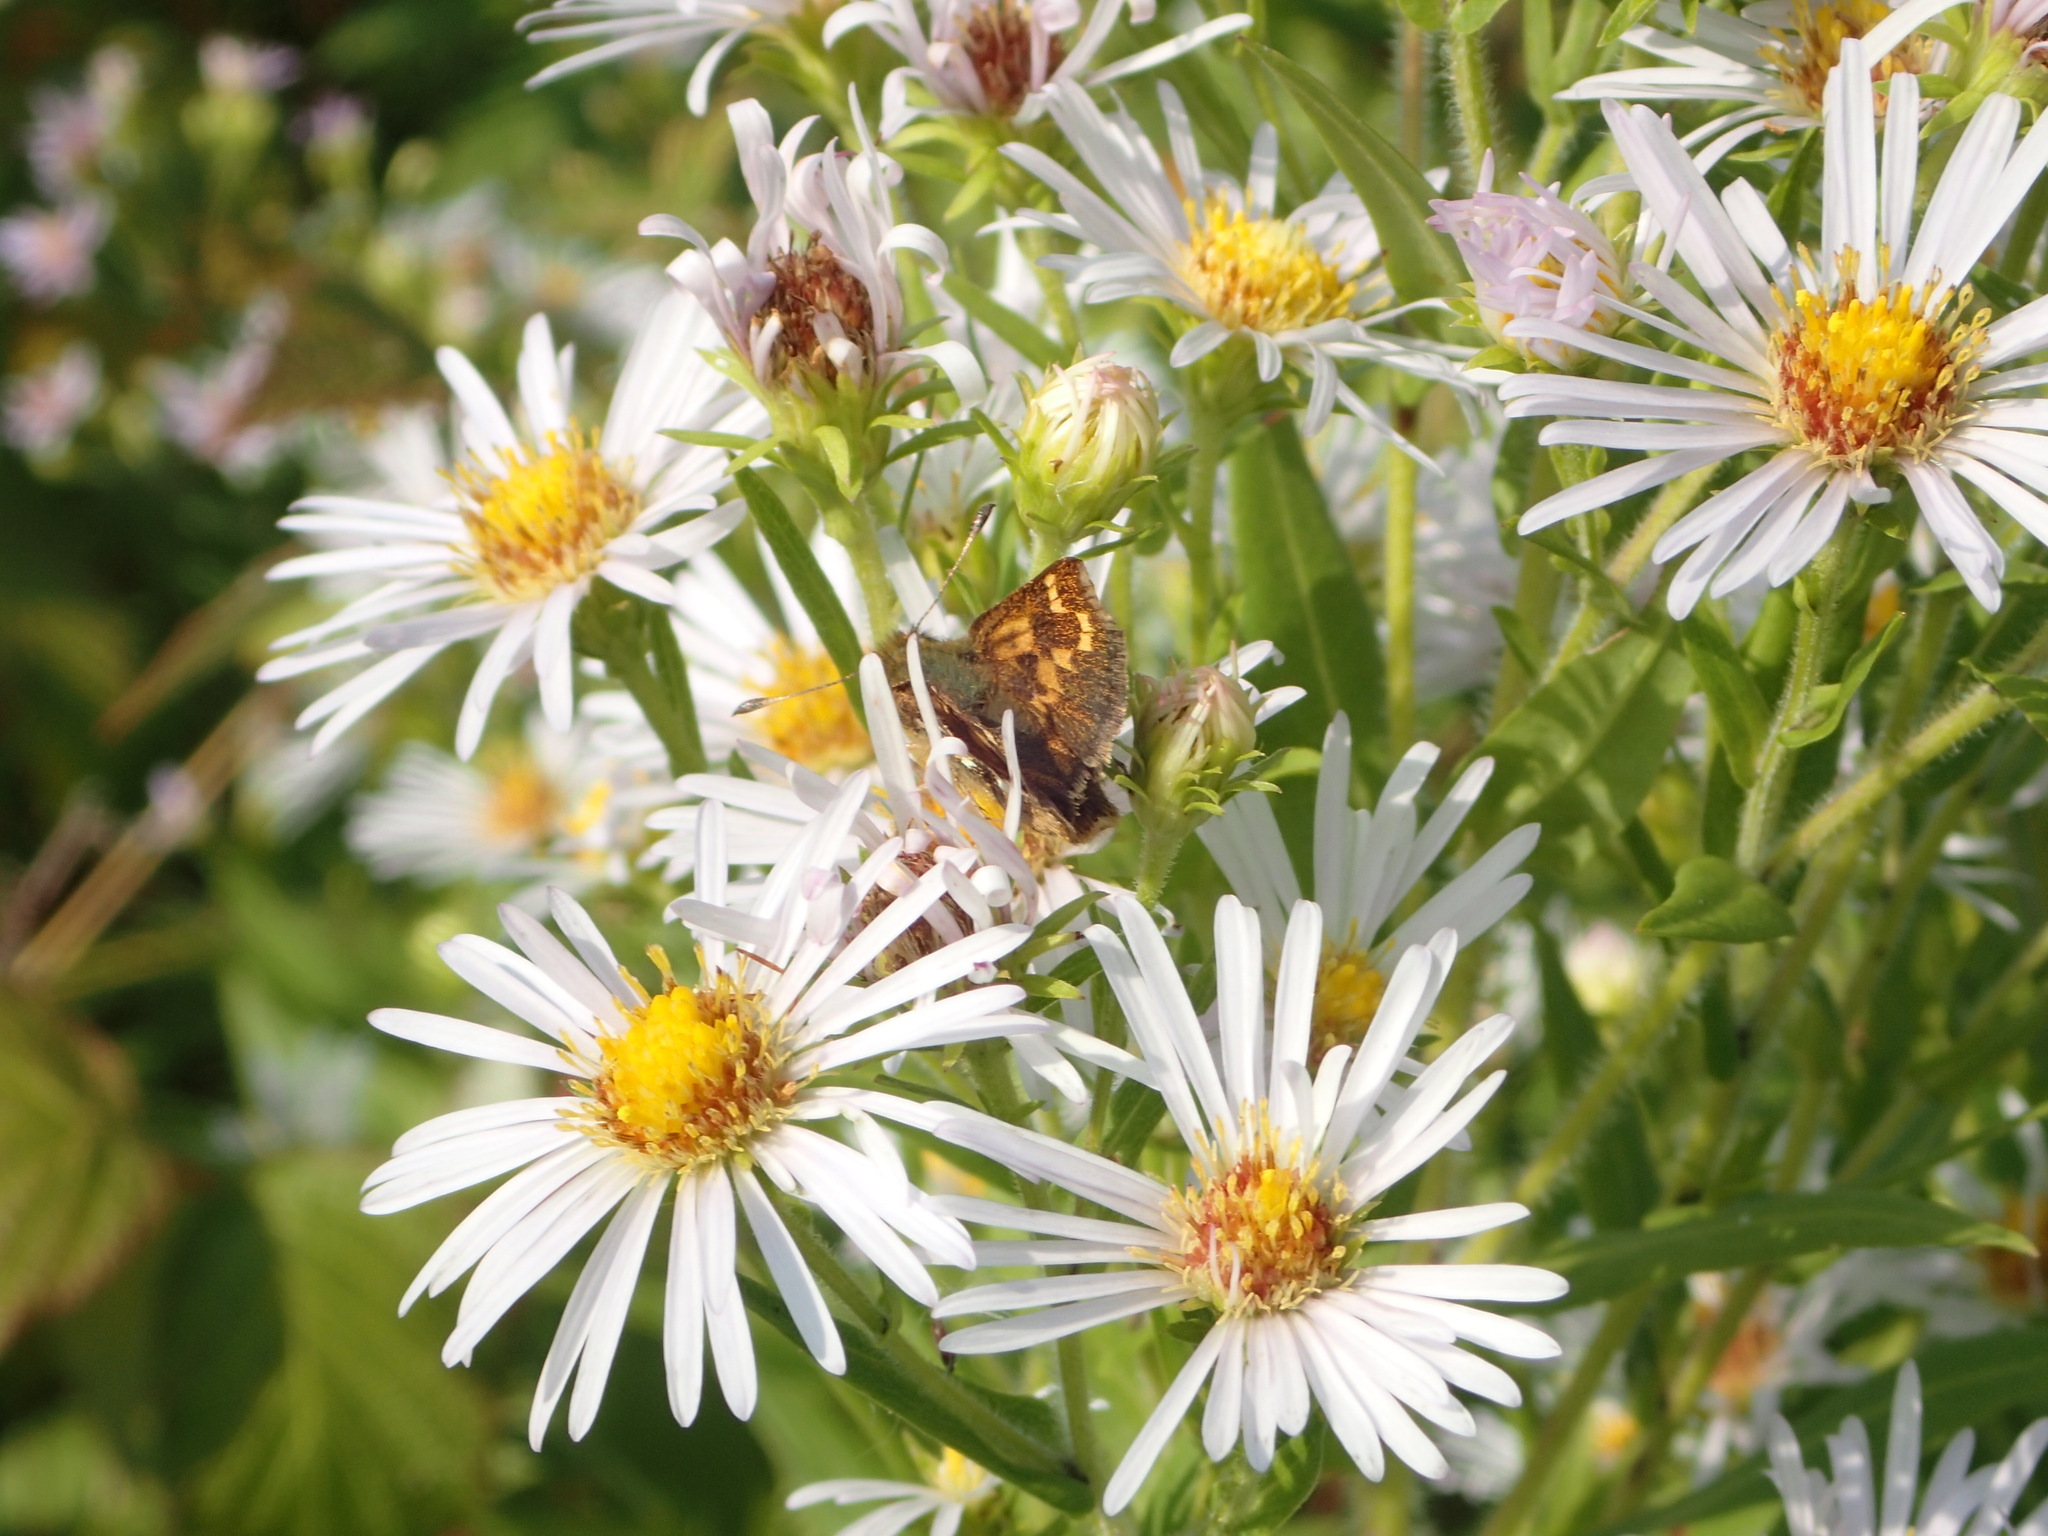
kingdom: Animalia
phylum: Arthropoda
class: Insecta
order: Lepidoptera
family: Hesperiidae
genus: Hesperia
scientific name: Hesperia comma
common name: Common branded skipper
